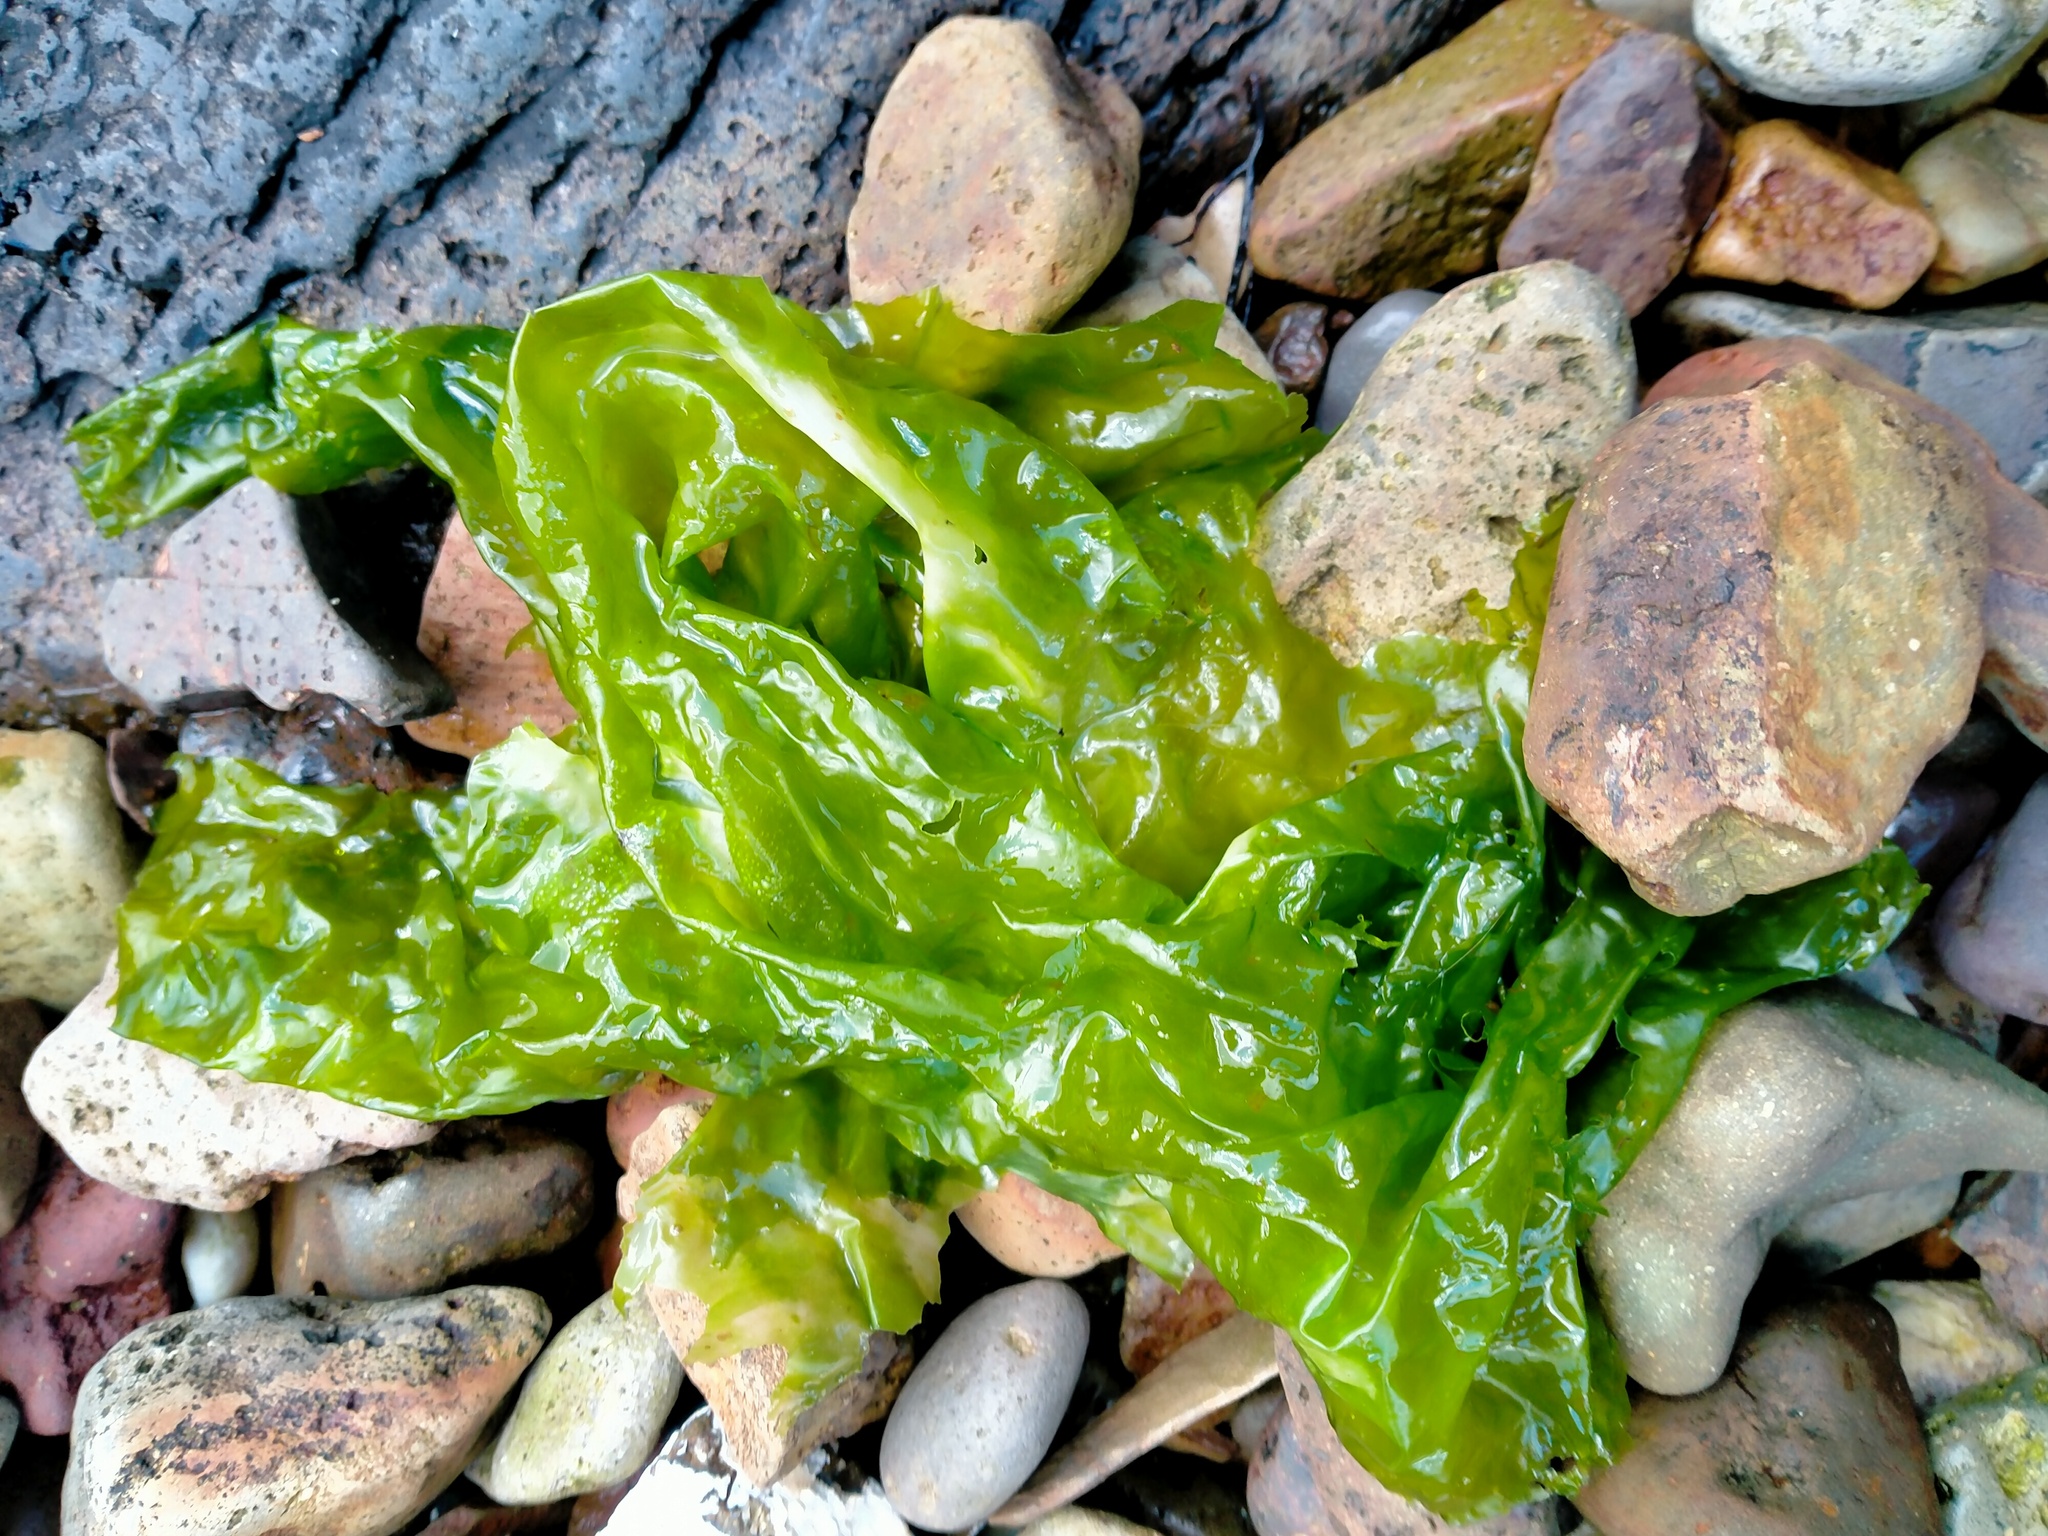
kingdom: Plantae
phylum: Chlorophyta
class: Ulvophyceae
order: Ulvales
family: Ulvaceae
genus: Ulva
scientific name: Ulva
